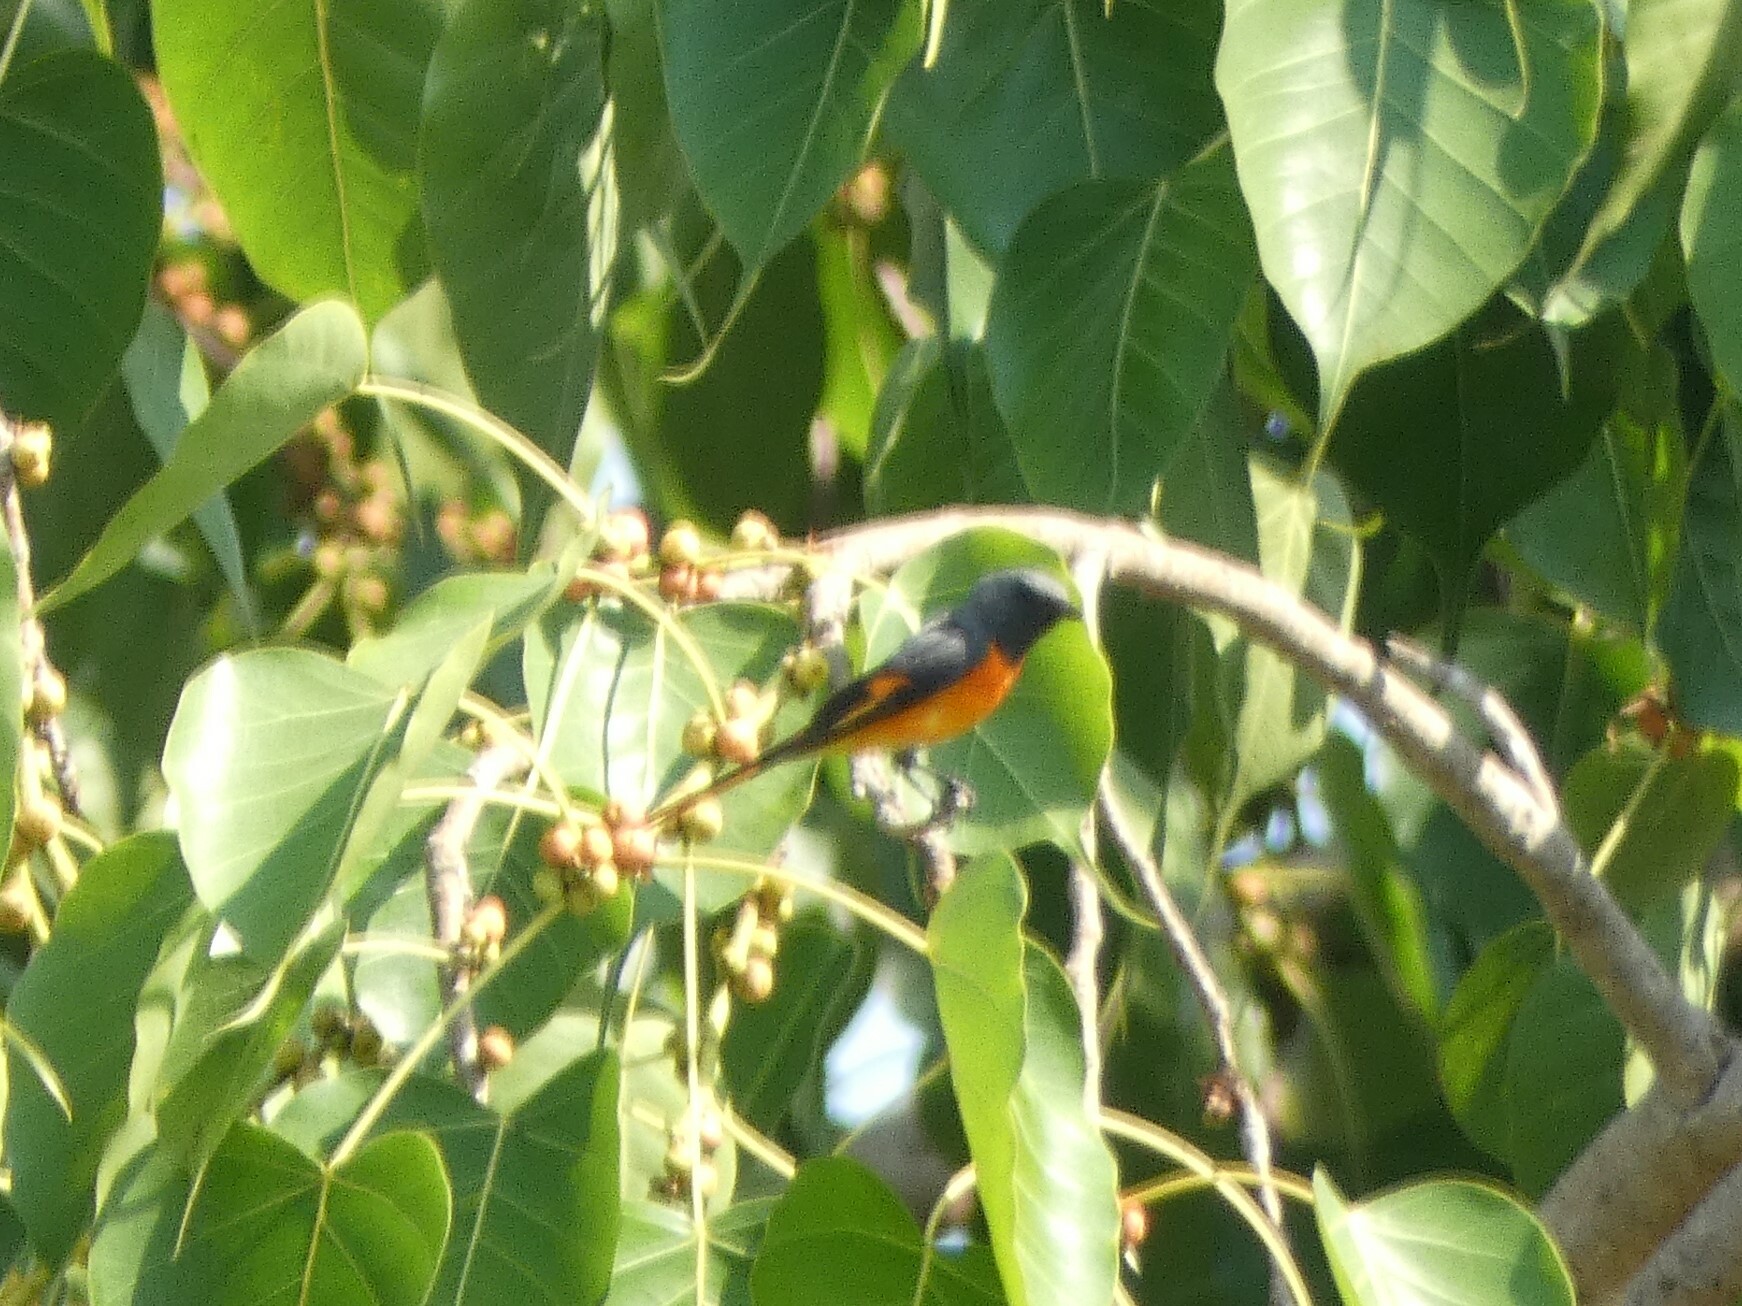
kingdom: Animalia
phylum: Chordata
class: Aves
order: Passeriformes
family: Campephagidae
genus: Pericrocotus
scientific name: Pericrocotus cinnamomeus
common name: Small minivet
